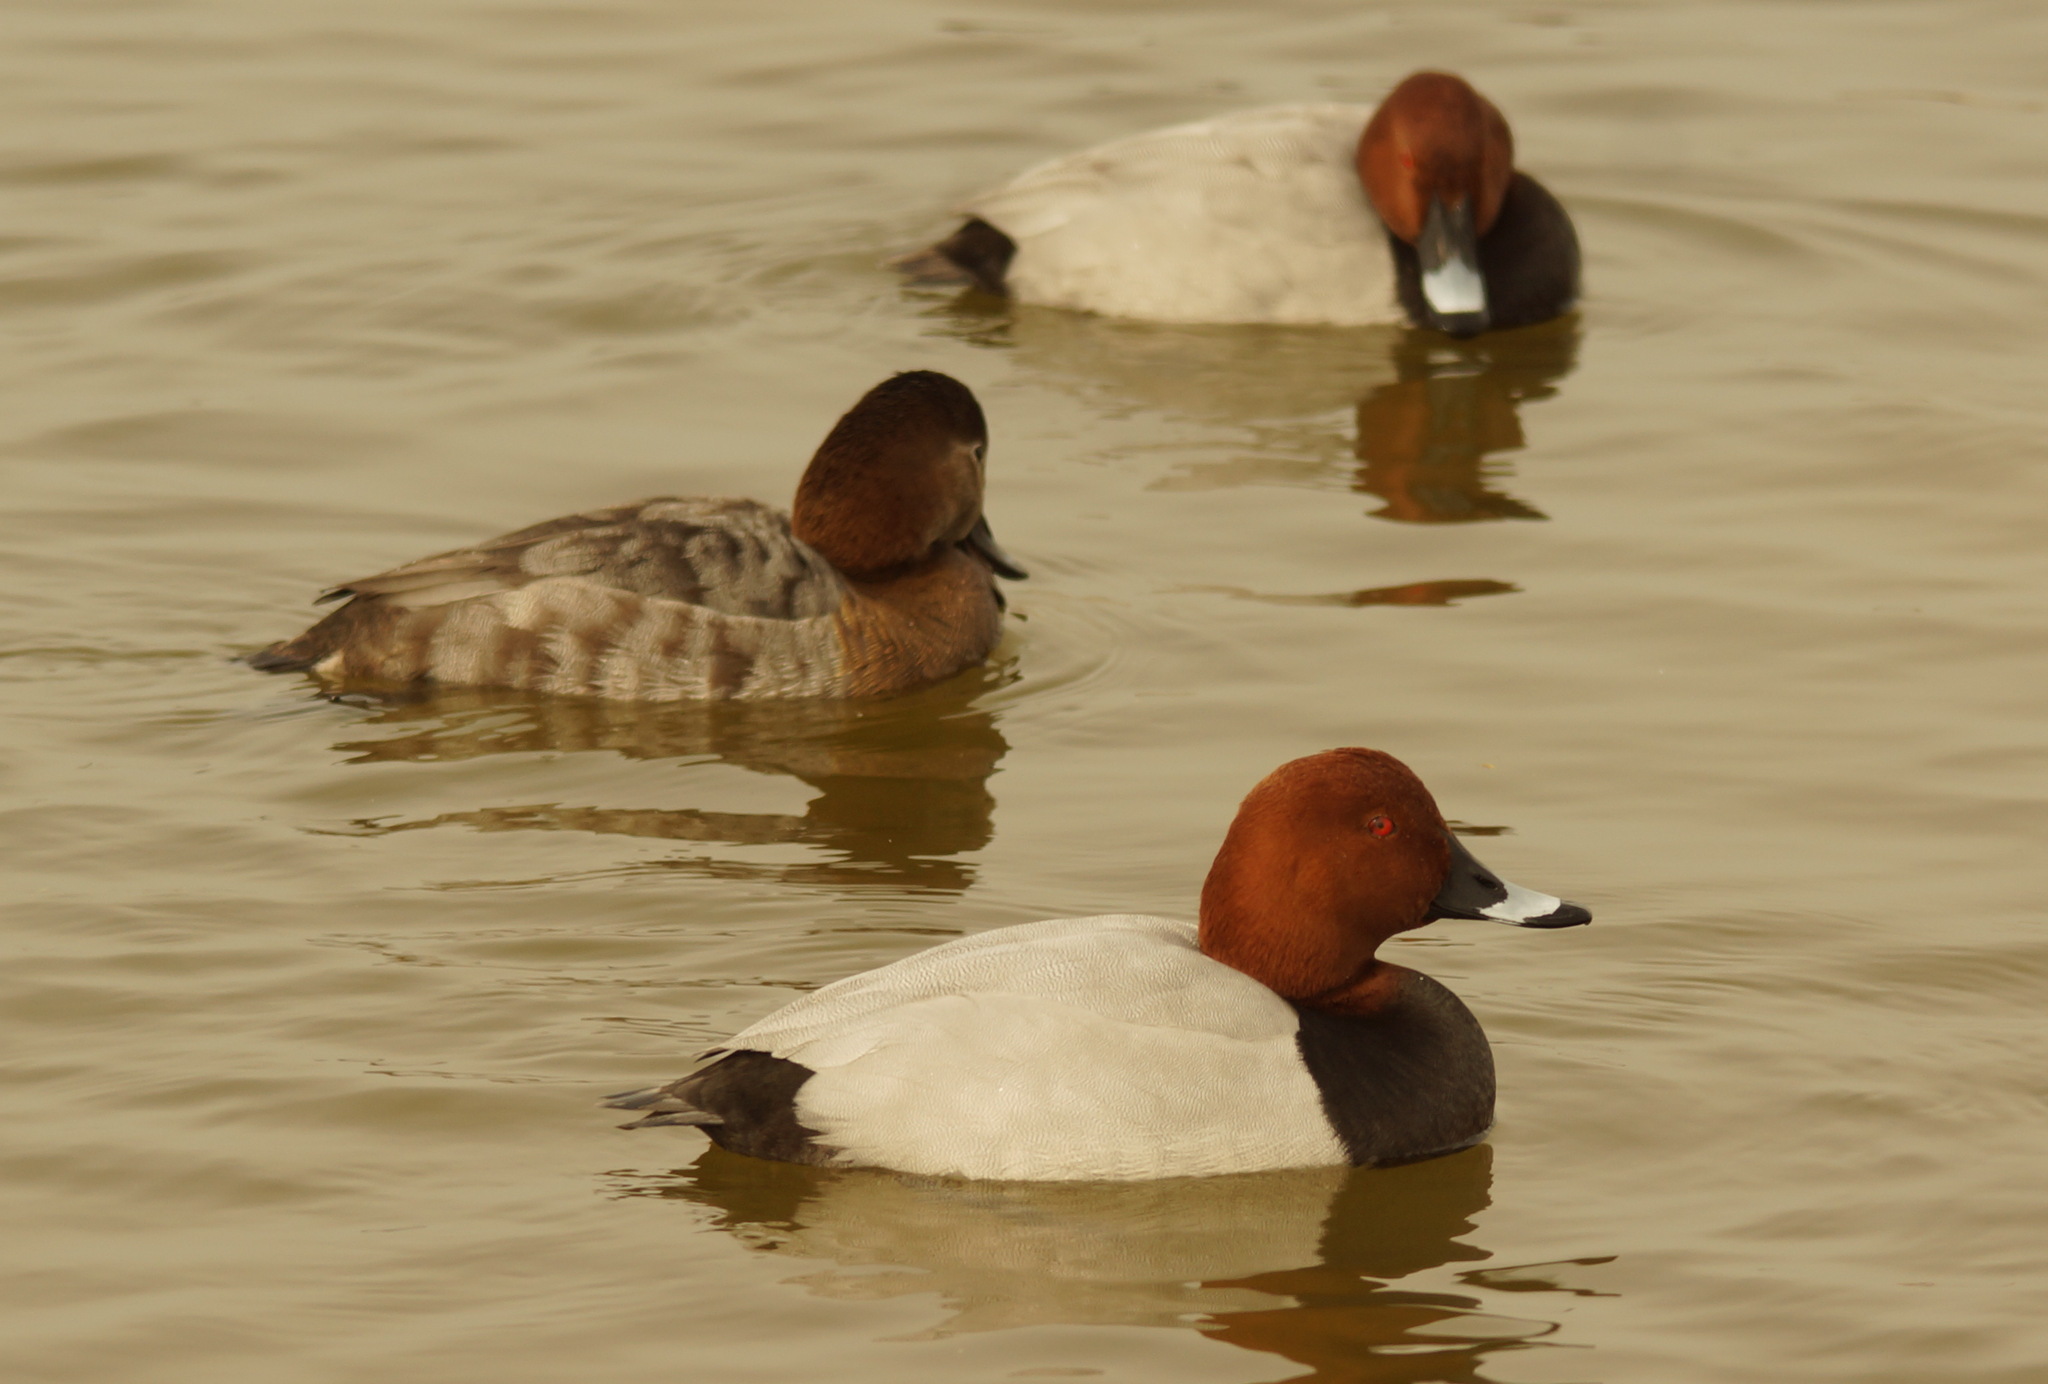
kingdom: Animalia
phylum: Chordata
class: Aves
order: Anseriformes
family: Anatidae
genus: Aythya
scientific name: Aythya ferina
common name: Common pochard
